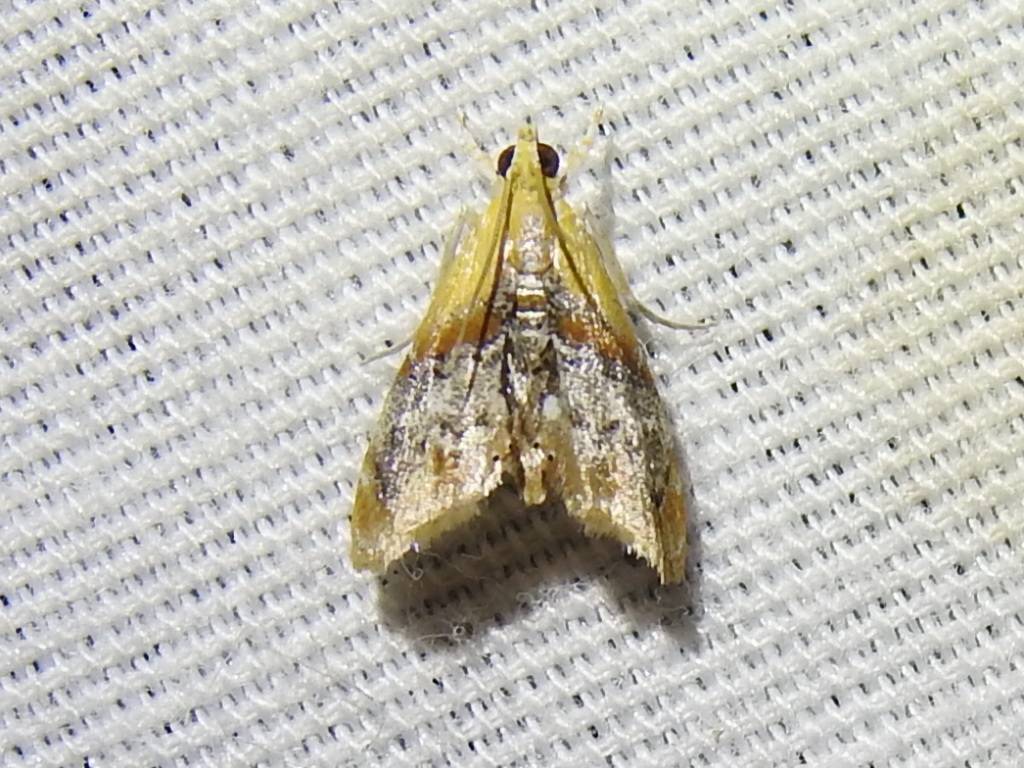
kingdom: Animalia
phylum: Arthropoda
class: Insecta
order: Lepidoptera
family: Crambidae
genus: Dicymolomia
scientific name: Dicymolomia julianalis
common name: Julia's dicymolomia moth
